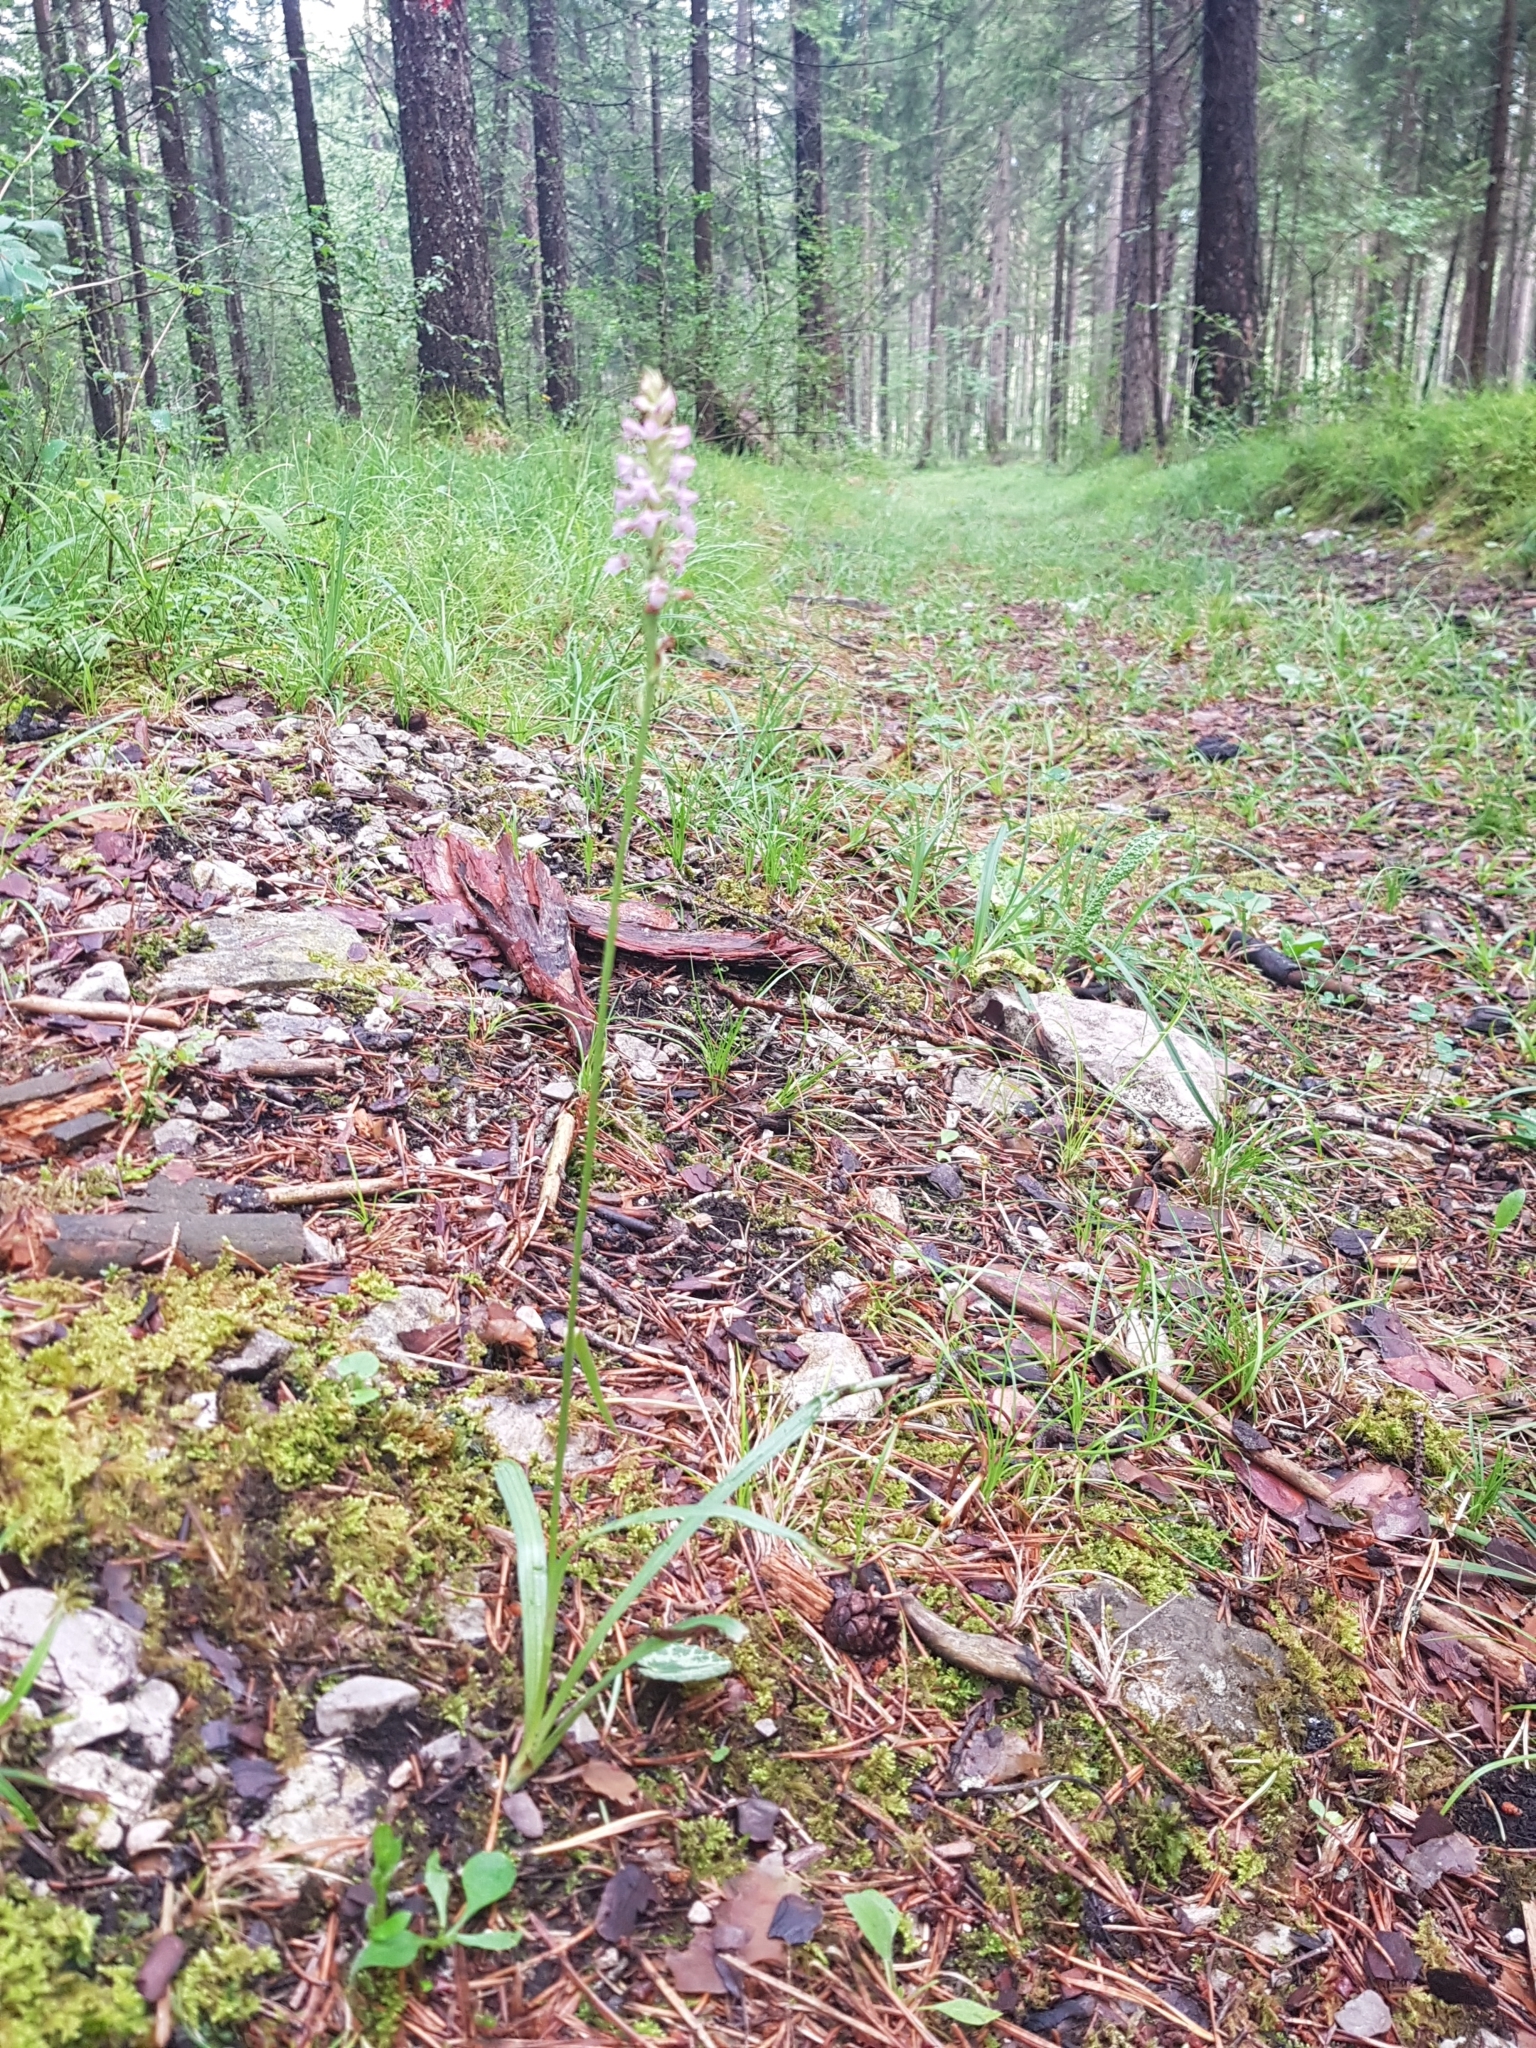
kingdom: Plantae
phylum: Tracheophyta
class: Liliopsida
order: Asparagales
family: Orchidaceae
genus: Gymnadenia
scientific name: Gymnadenia odoratissima
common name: Scented gymnadenia
